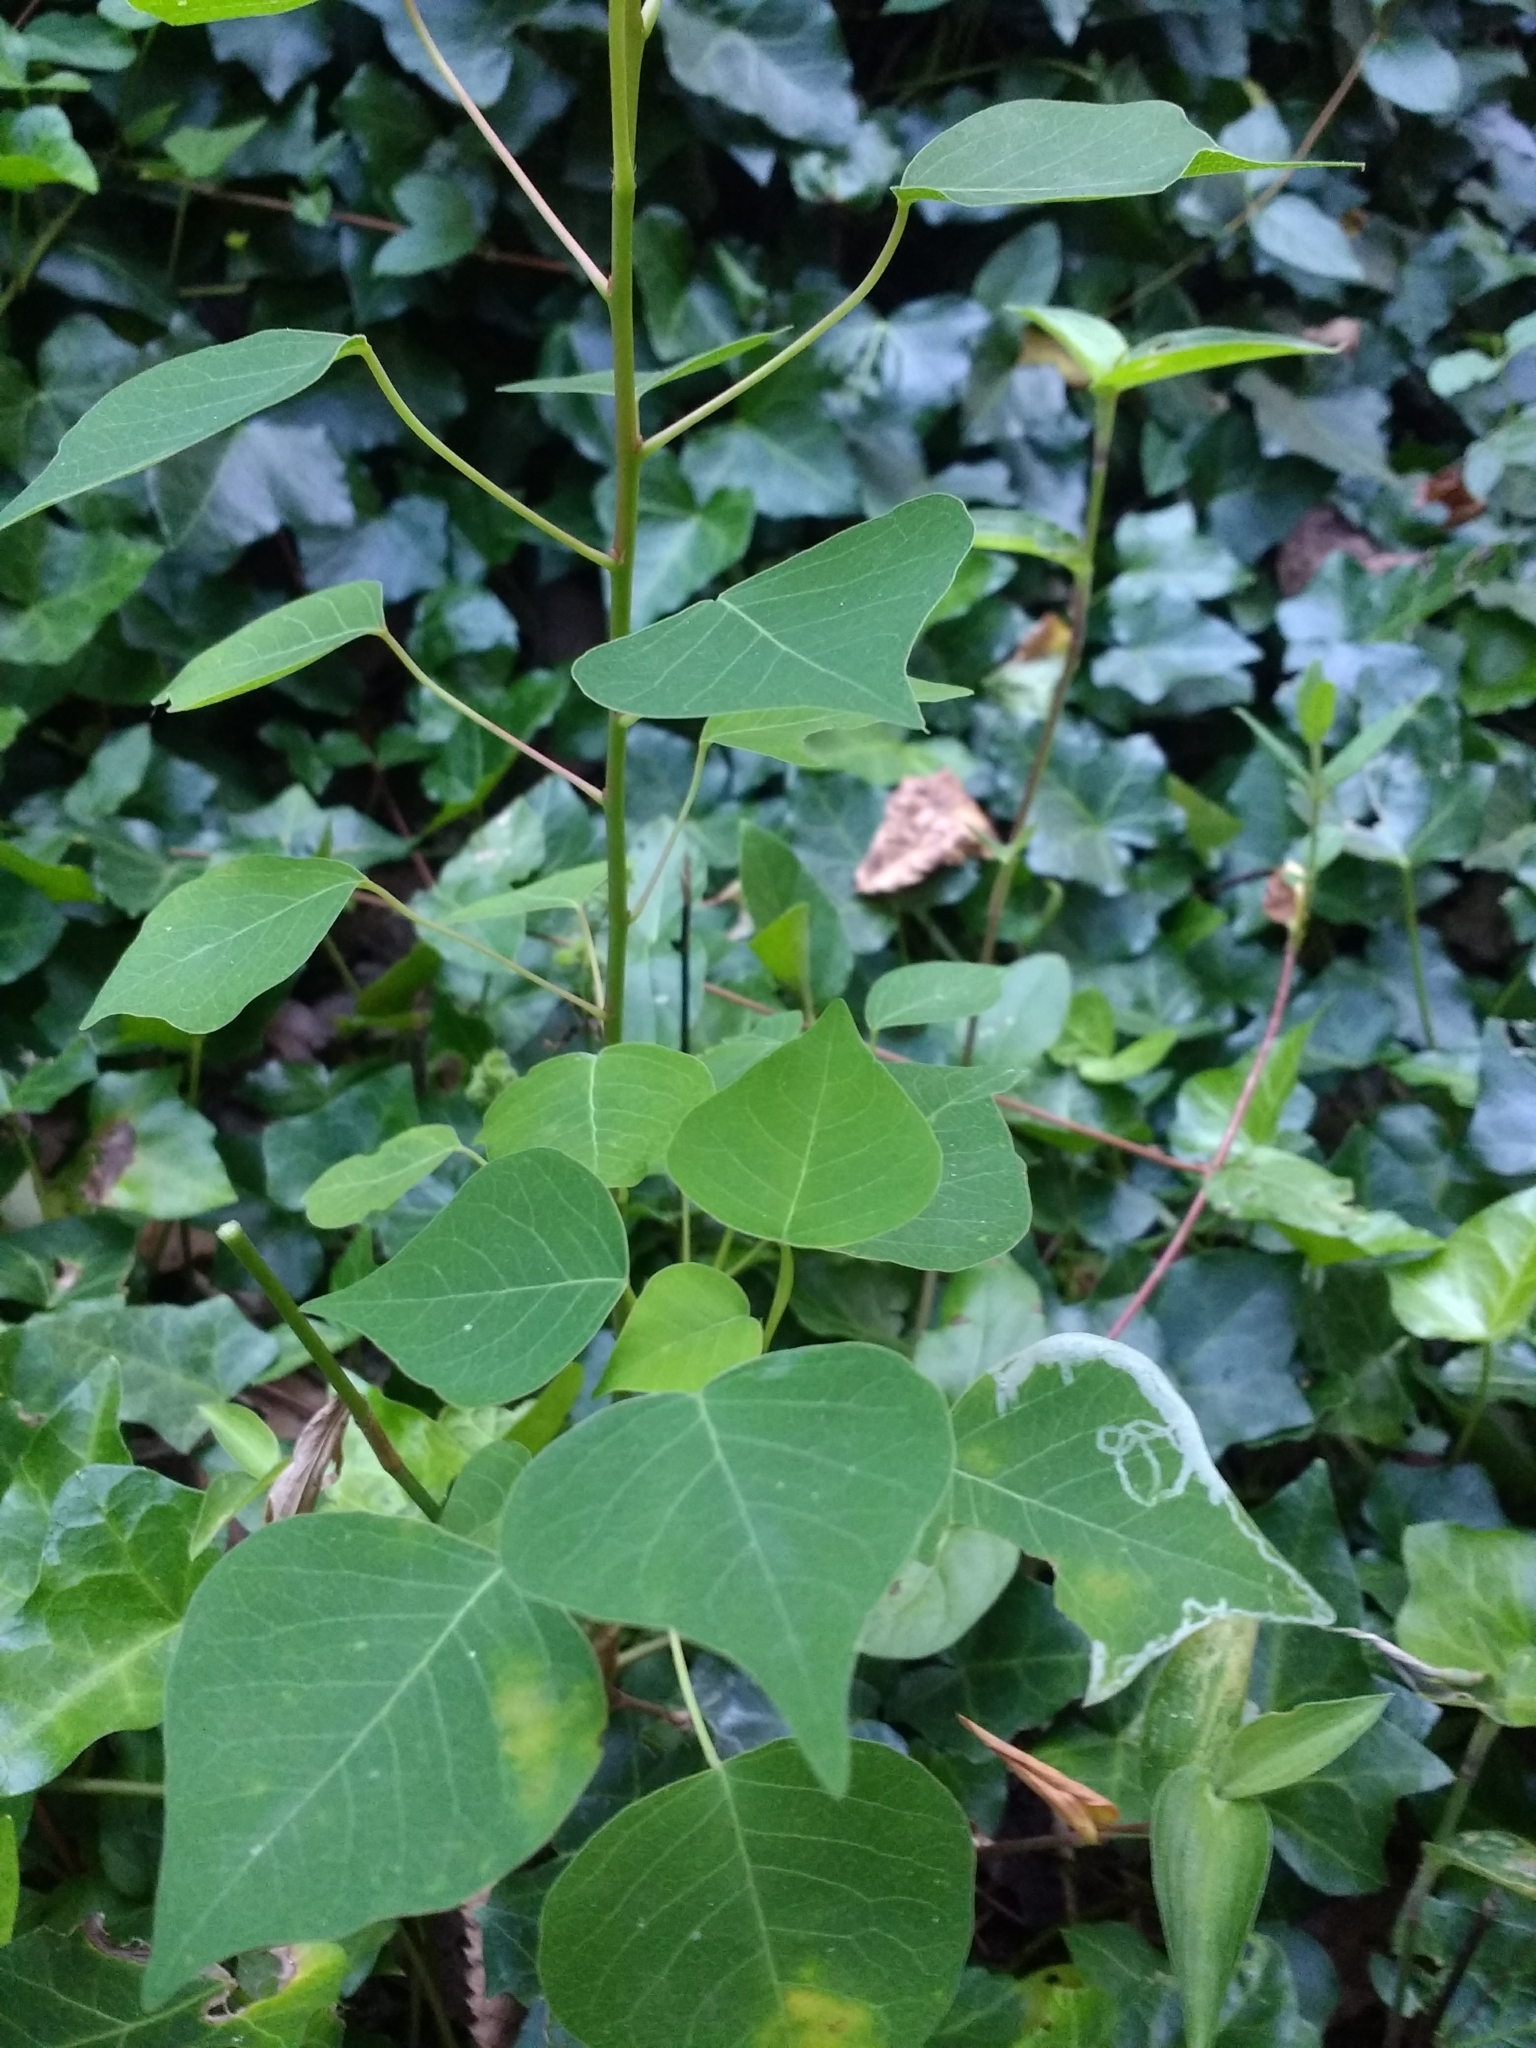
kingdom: Plantae
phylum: Tracheophyta
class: Magnoliopsida
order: Malpighiales
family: Euphorbiaceae
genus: Triadica
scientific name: Triadica sebifera
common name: Chinese tallow
